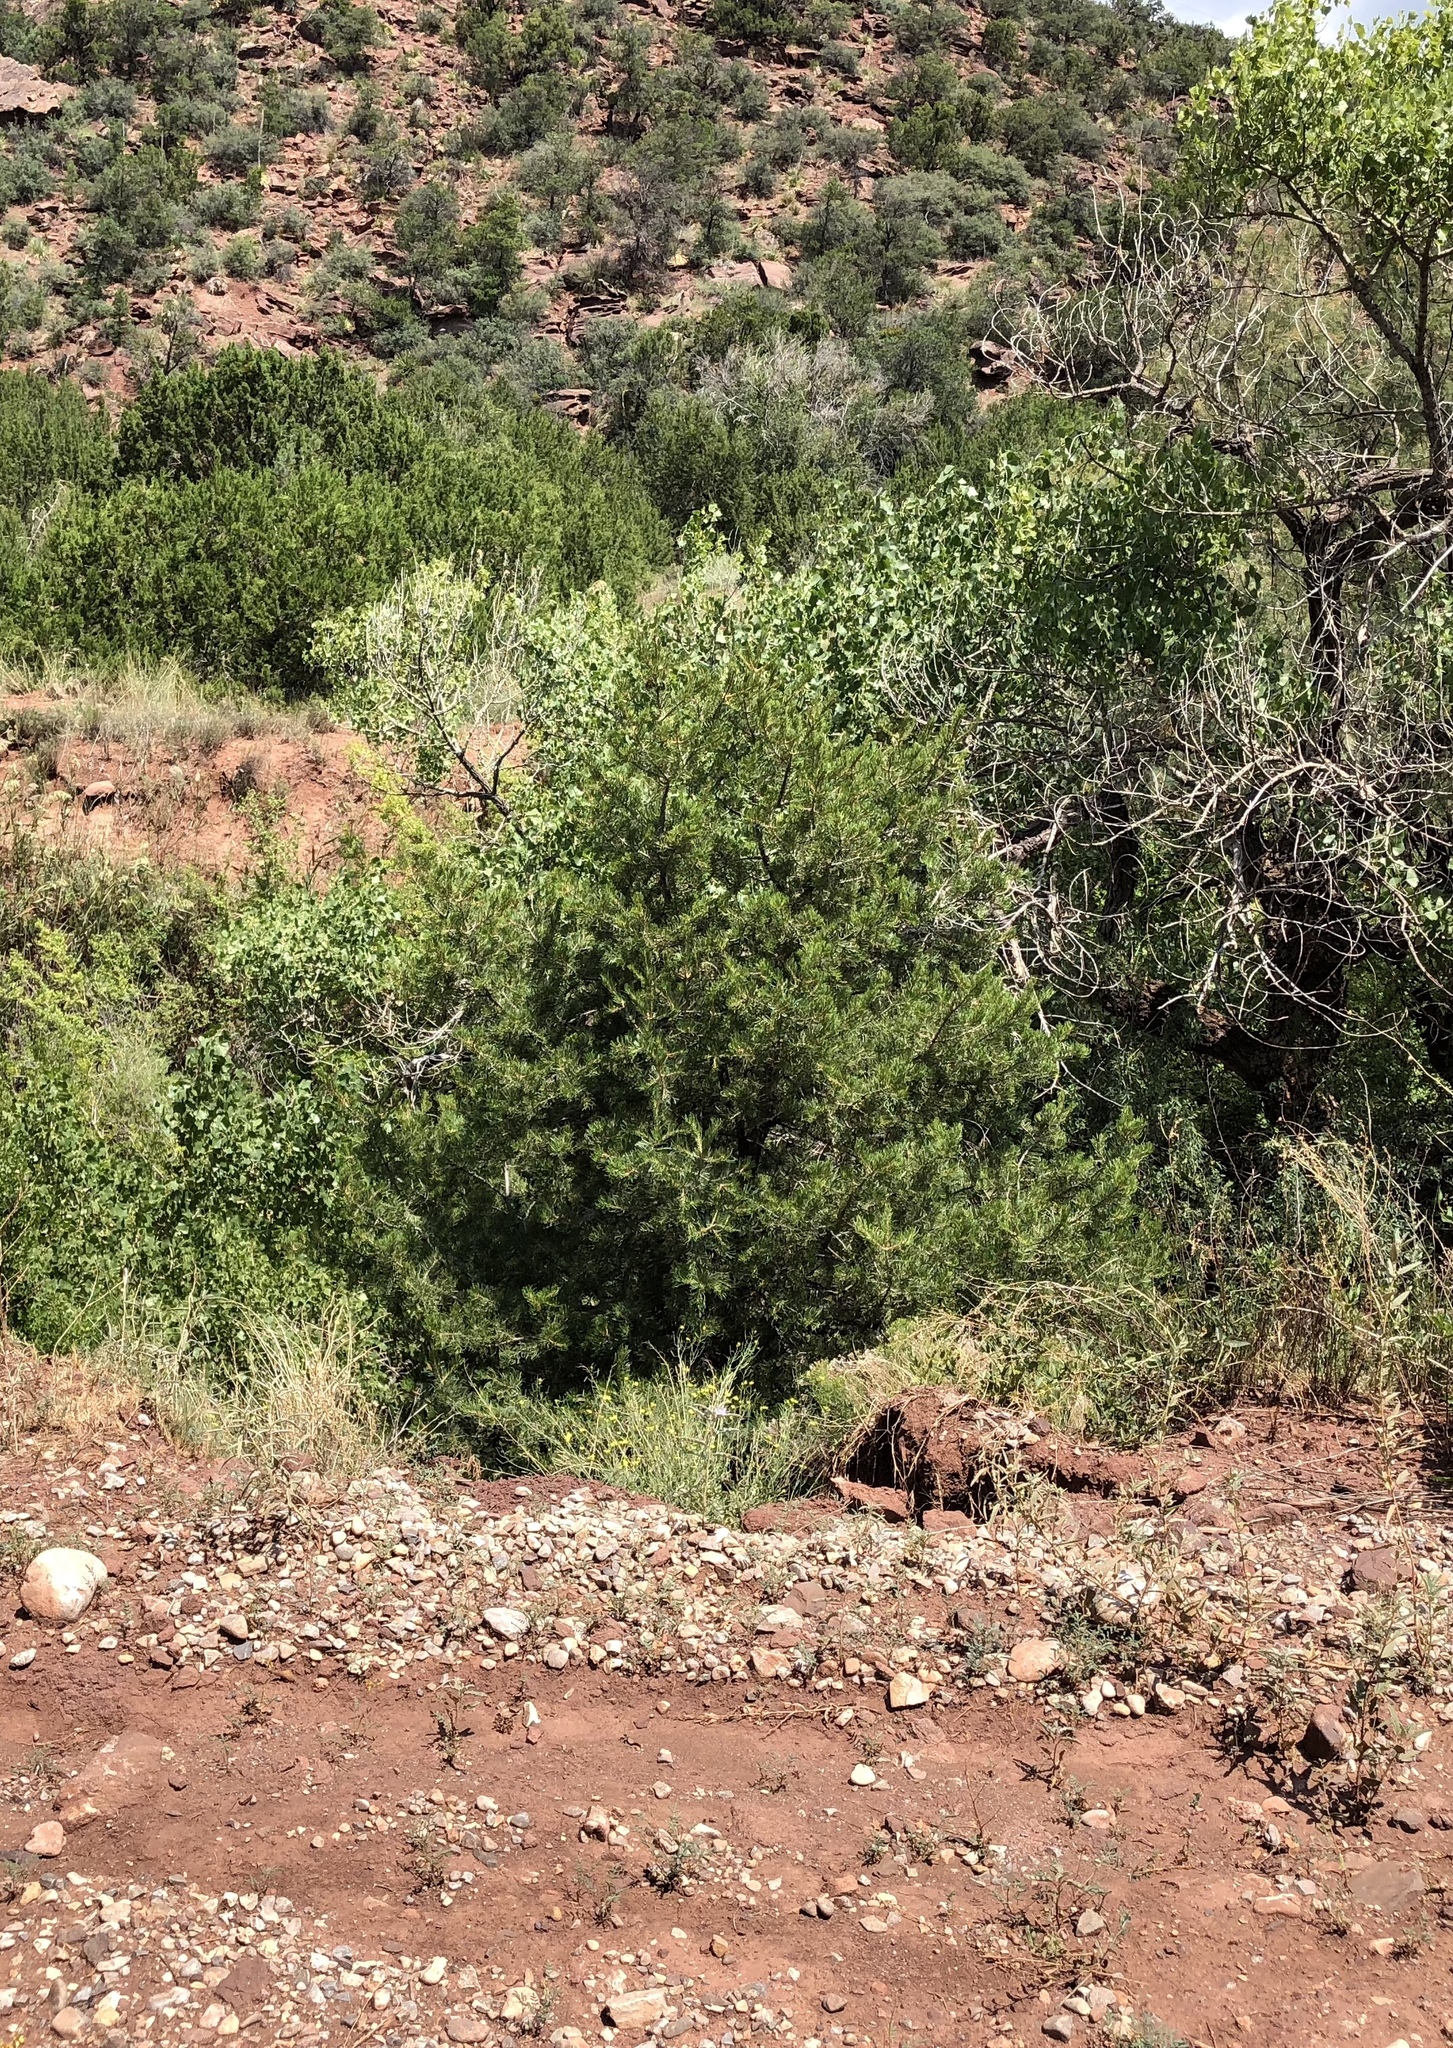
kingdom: Plantae
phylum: Tracheophyta
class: Pinopsida
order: Pinales
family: Pinaceae
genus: Pinus
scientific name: Pinus edulis
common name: Colorado pinyon
